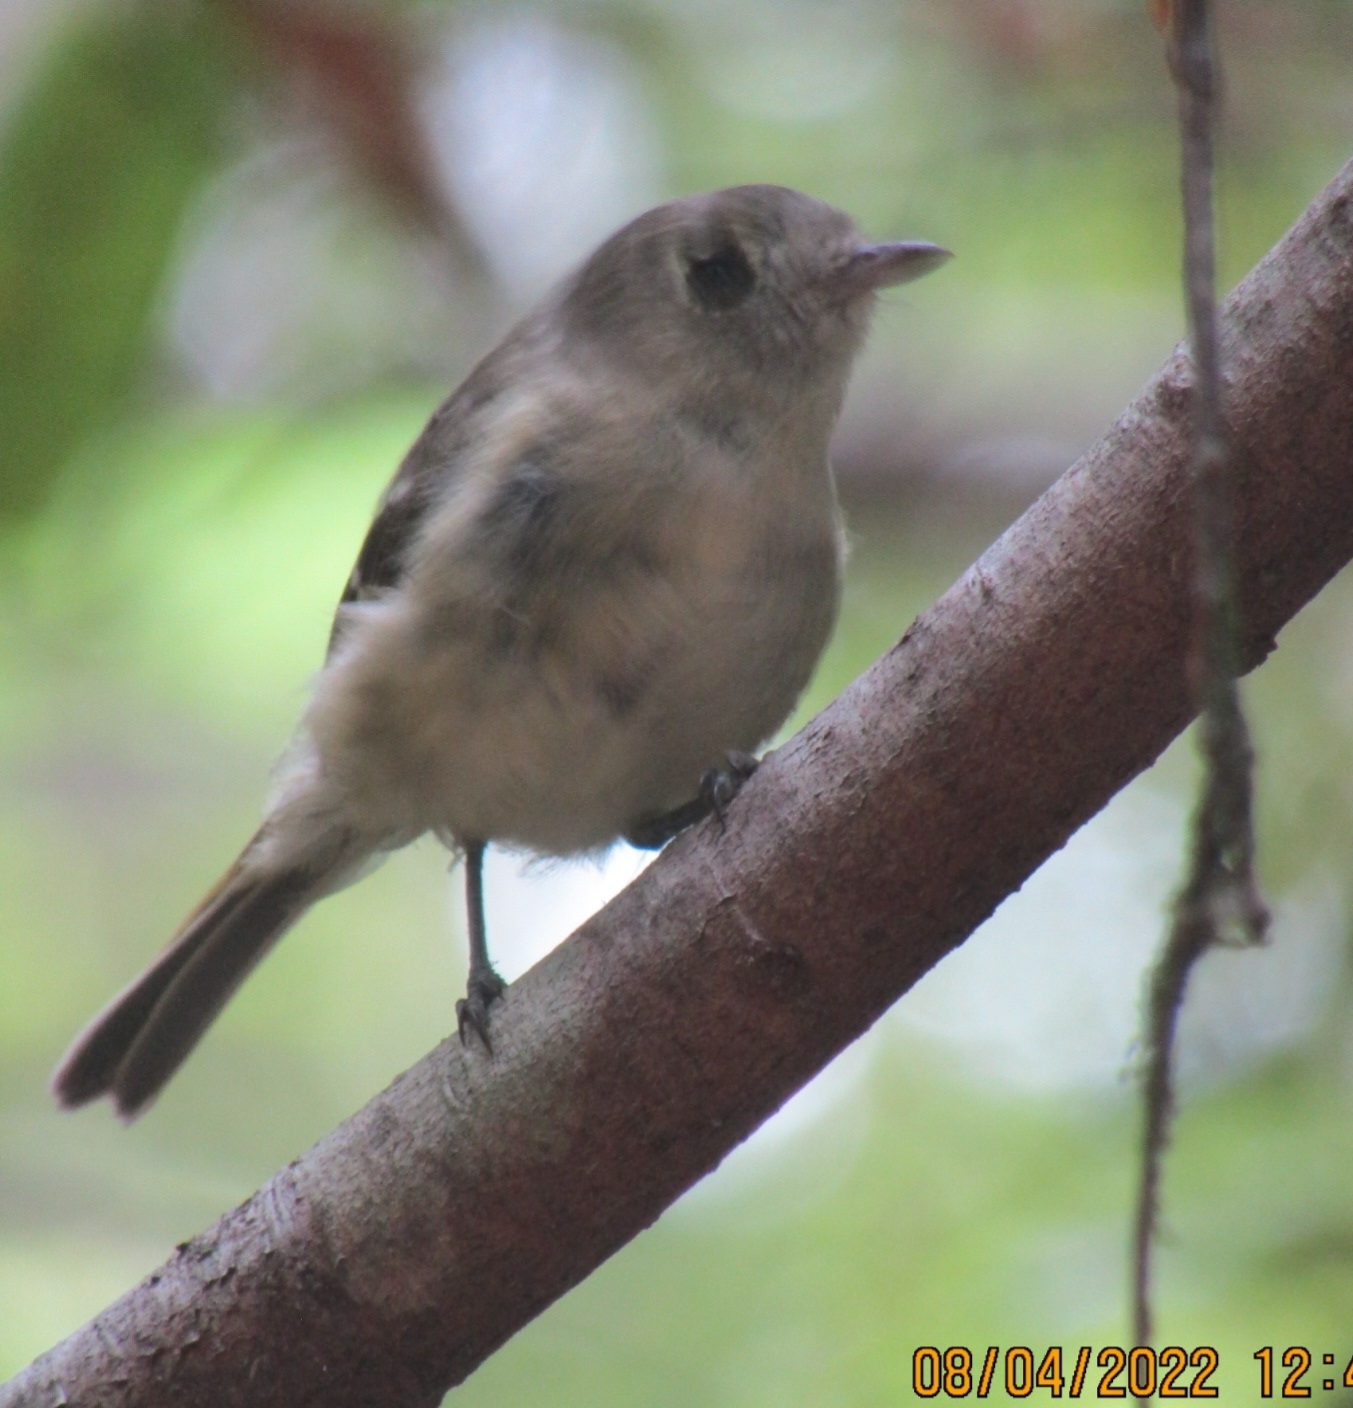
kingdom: Animalia
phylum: Chordata
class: Aves
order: Passeriformes
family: Vireonidae
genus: Vireo
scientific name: Vireo huttoni
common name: Hutton's vireo
